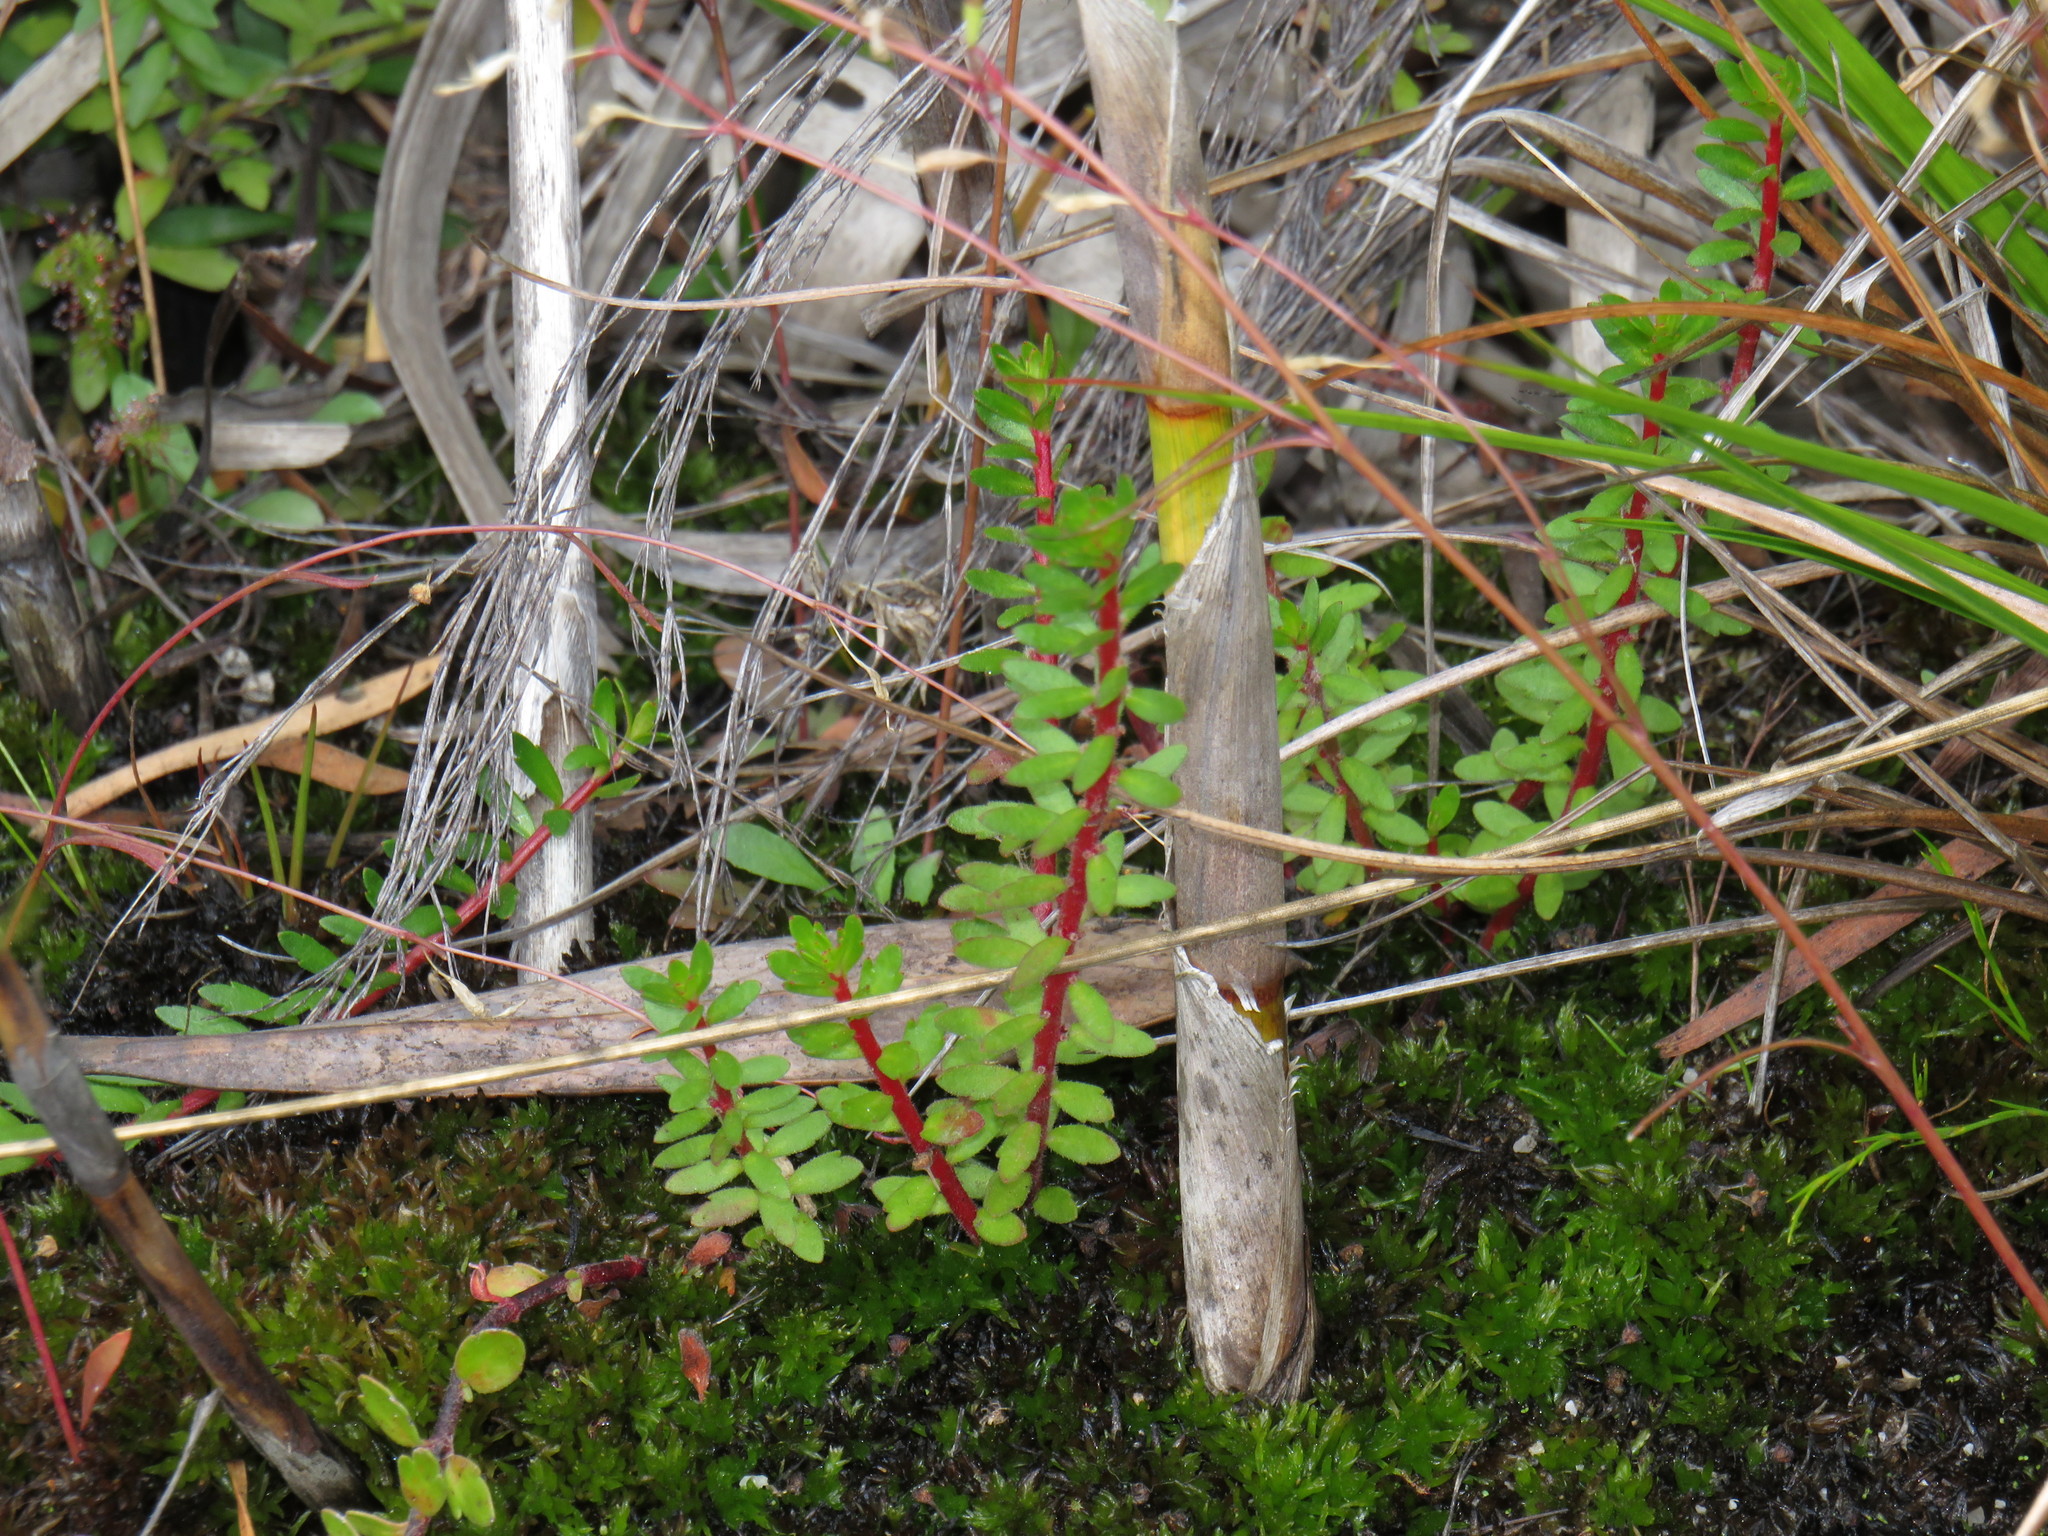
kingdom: Plantae
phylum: Tracheophyta
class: Magnoliopsida
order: Saxifragales
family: Haloragaceae
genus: Laurembergia
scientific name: Laurembergia repens
